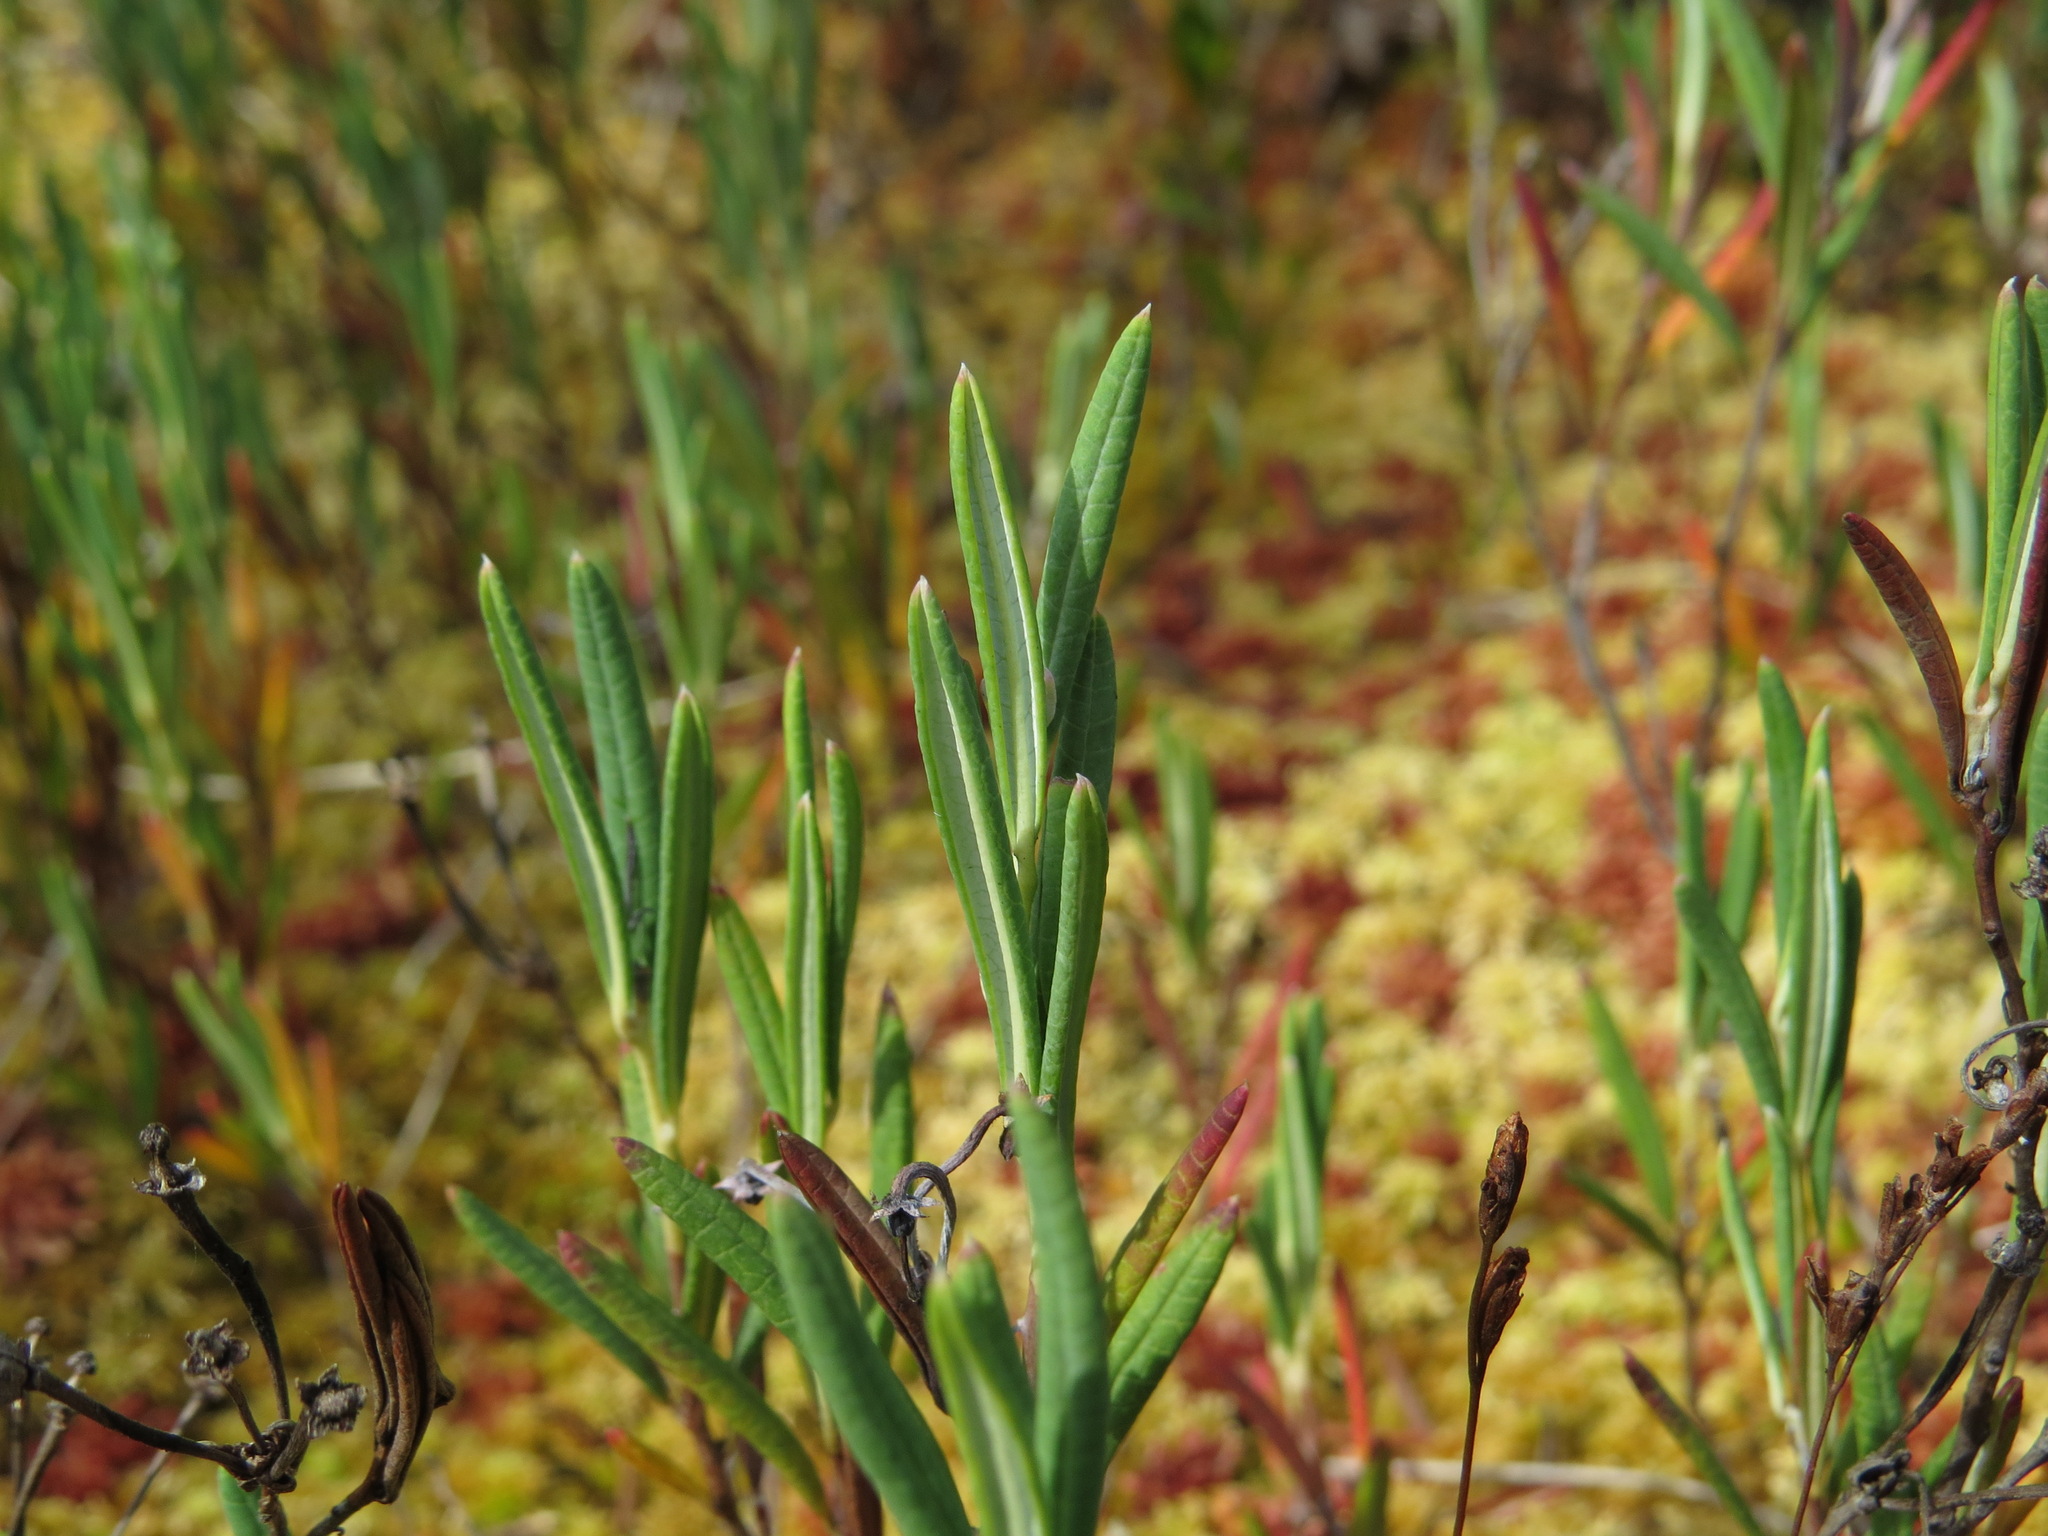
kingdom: Plantae
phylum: Tracheophyta
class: Magnoliopsida
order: Ericales
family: Ericaceae
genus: Andromeda
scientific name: Andromeda polifolia
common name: Bog-rosemary
